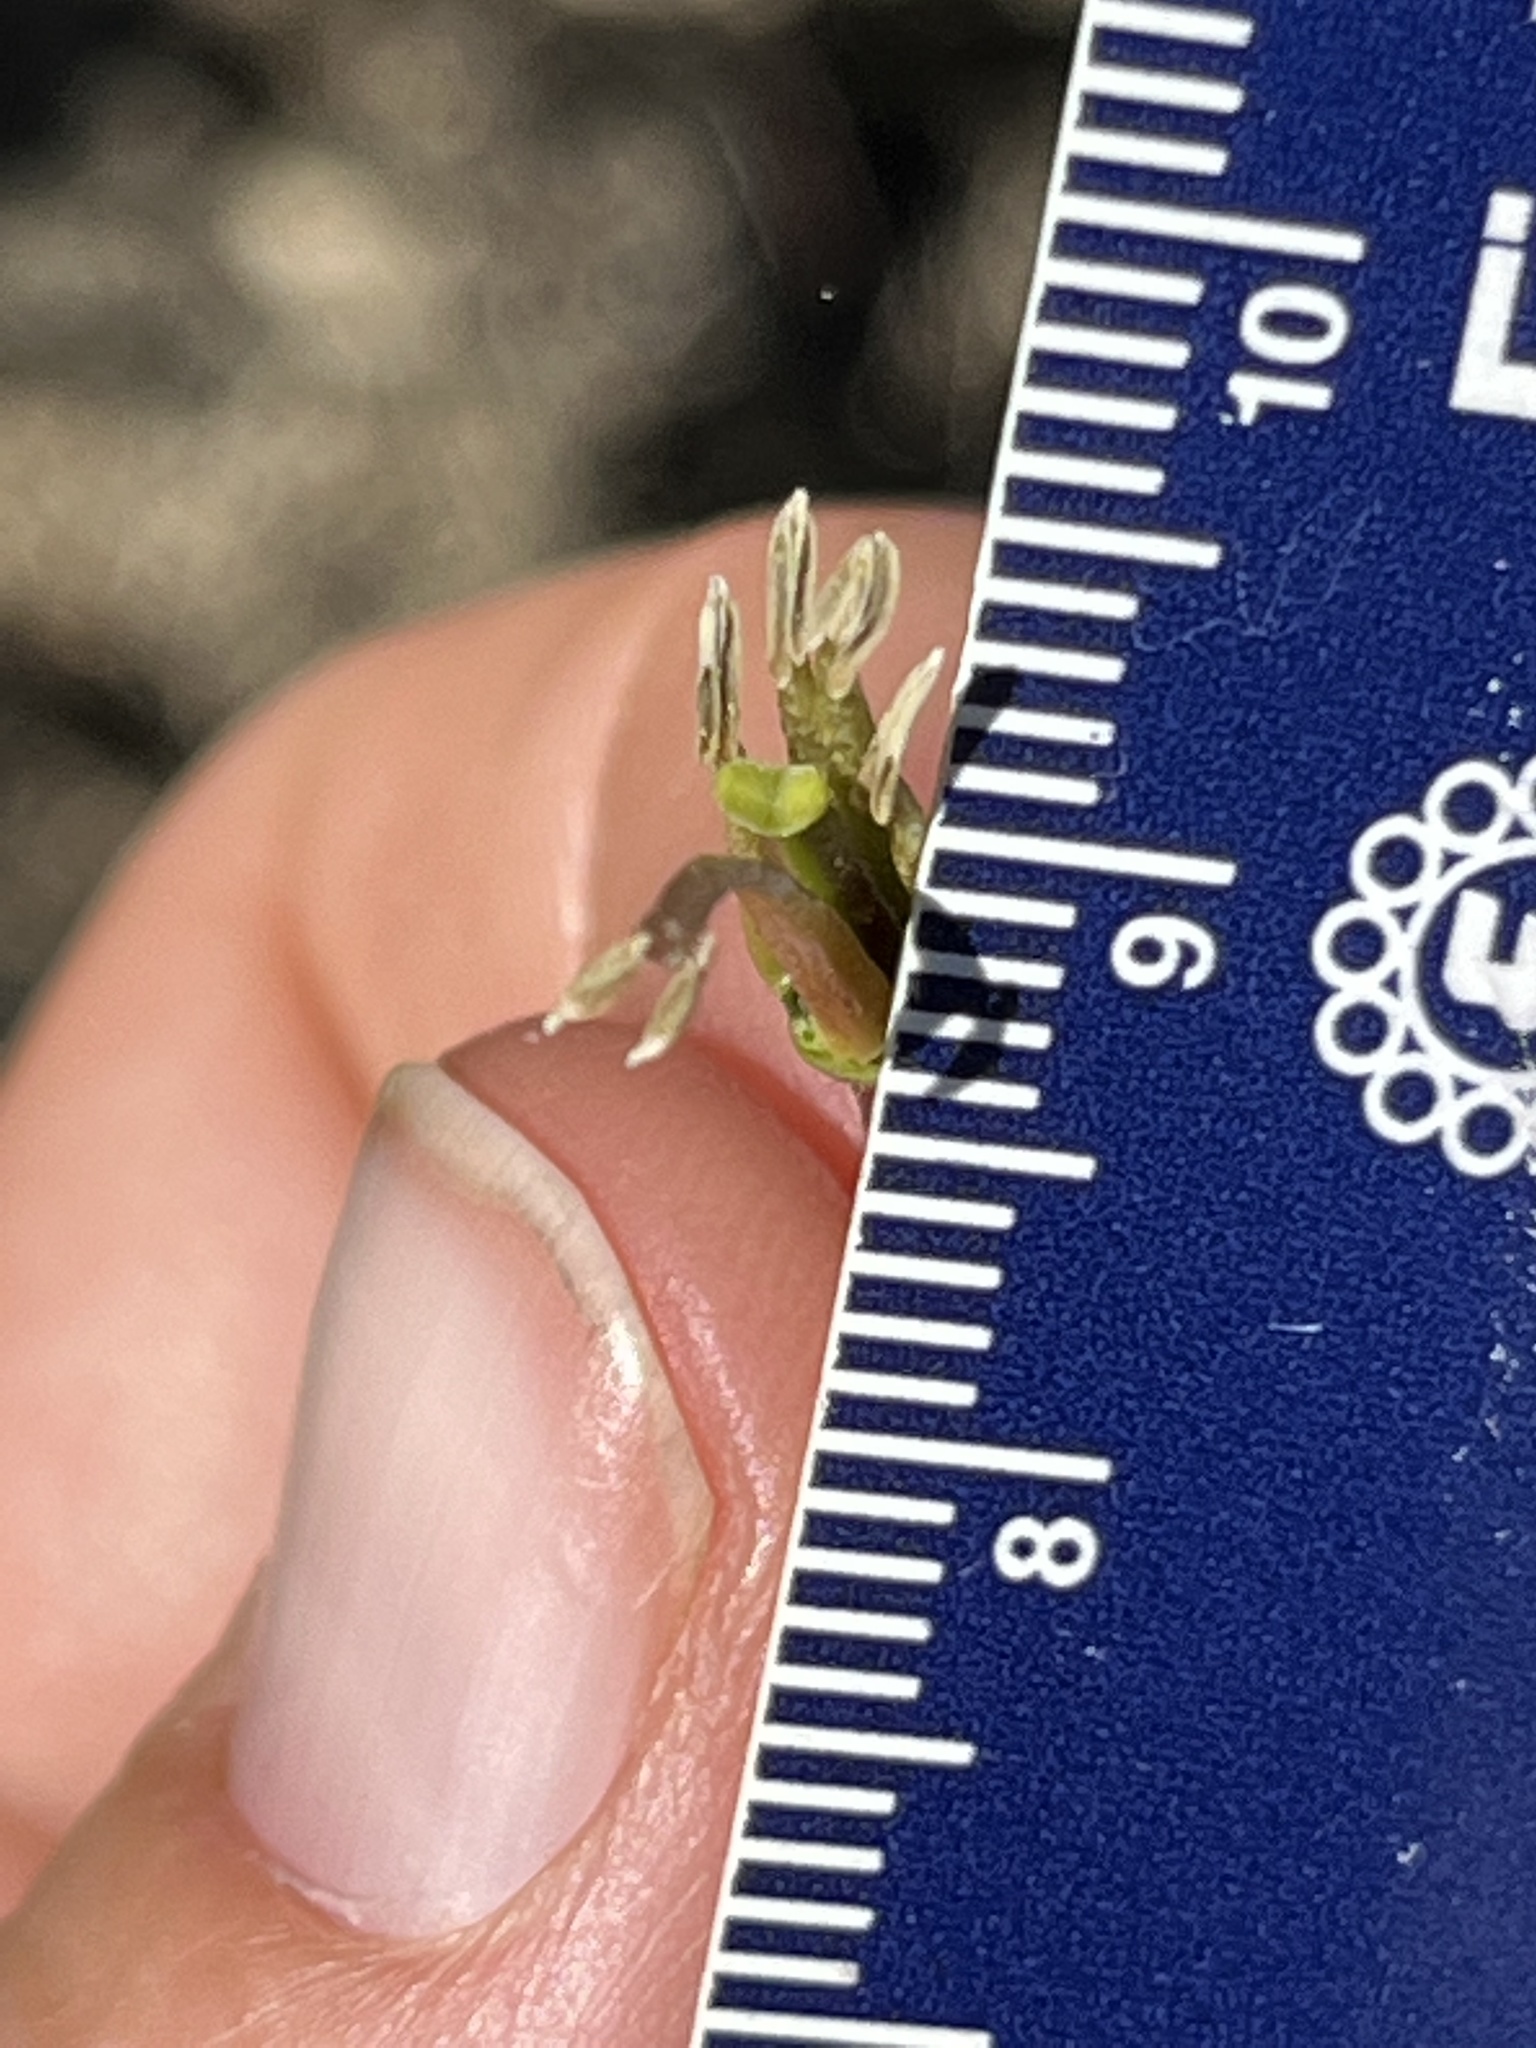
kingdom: Plantae
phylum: Tracheophyta
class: Magnoliopsida
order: Brassicales
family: Brassicaceae
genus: Streptanthus
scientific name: Streptanthus lemmonii
